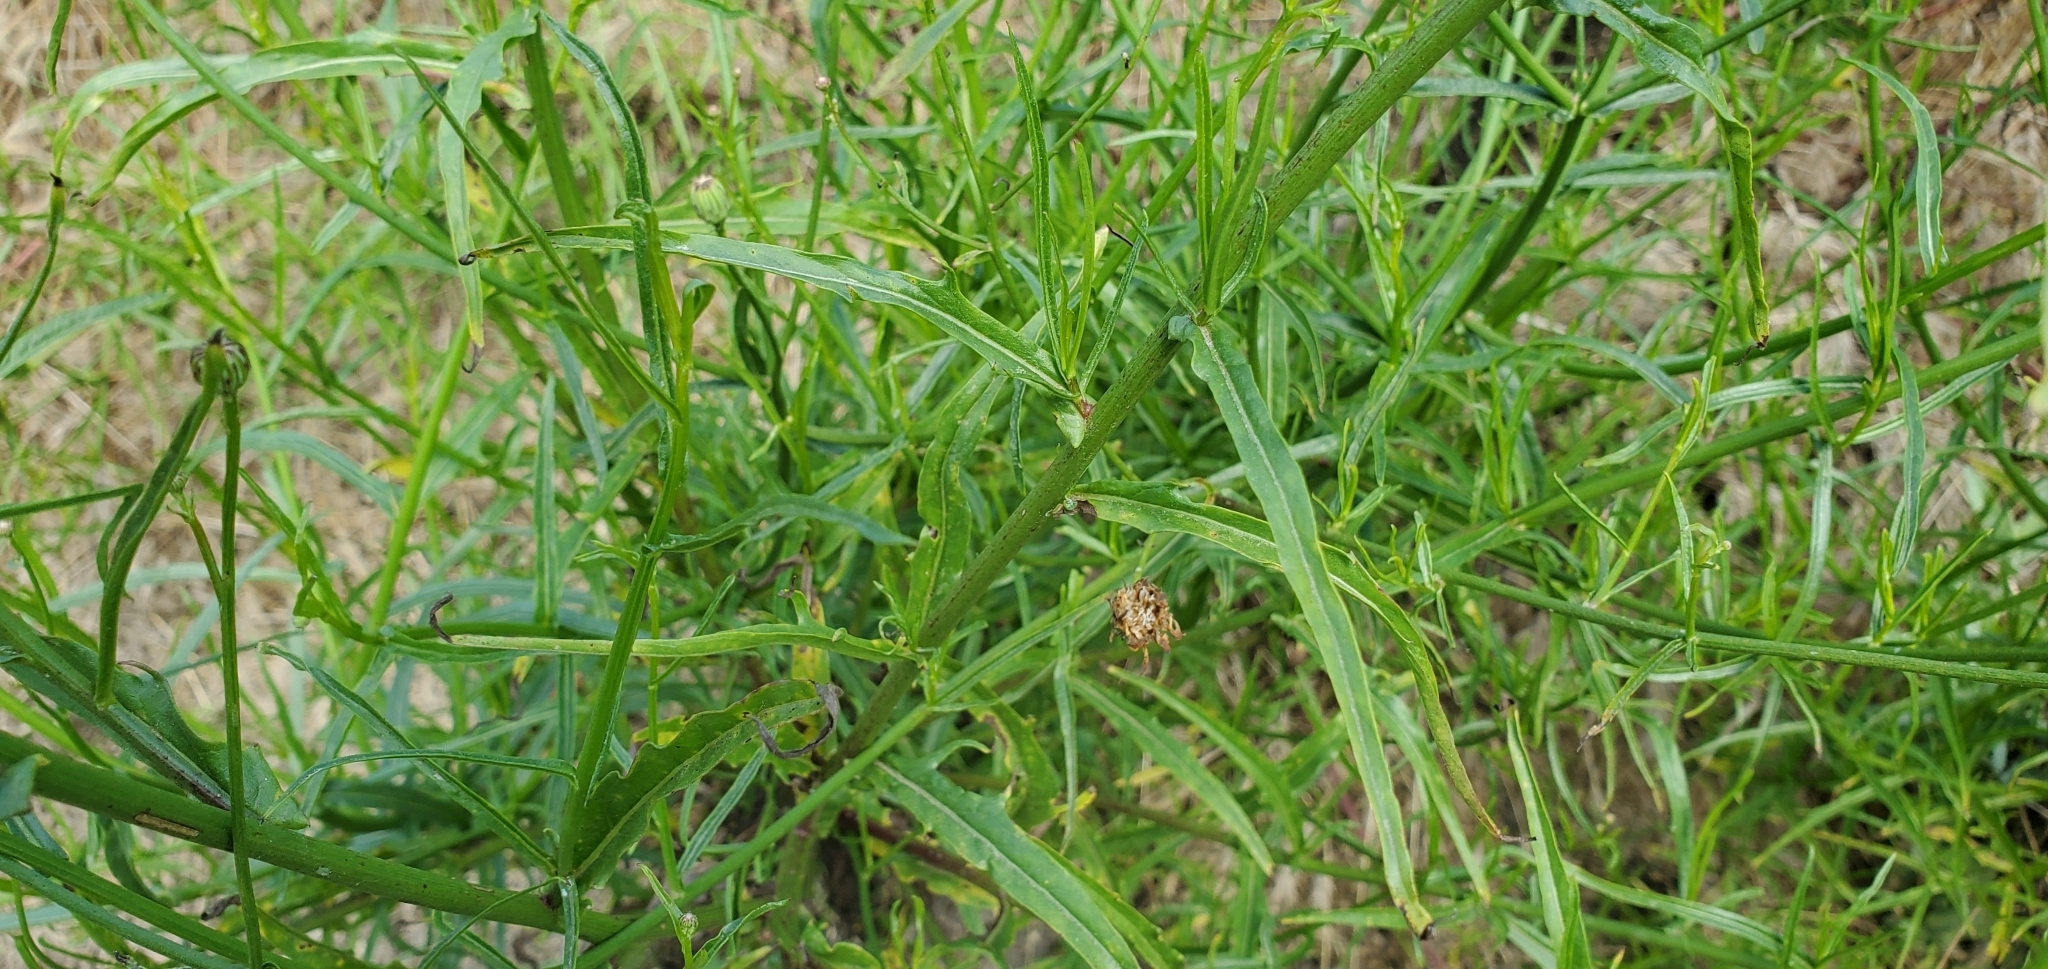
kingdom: Plantae
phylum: Tracheophyta
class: Magnoliopsida
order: Asterales
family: Asteraceae
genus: Malacothrix
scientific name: Malacothrix saxatilis
